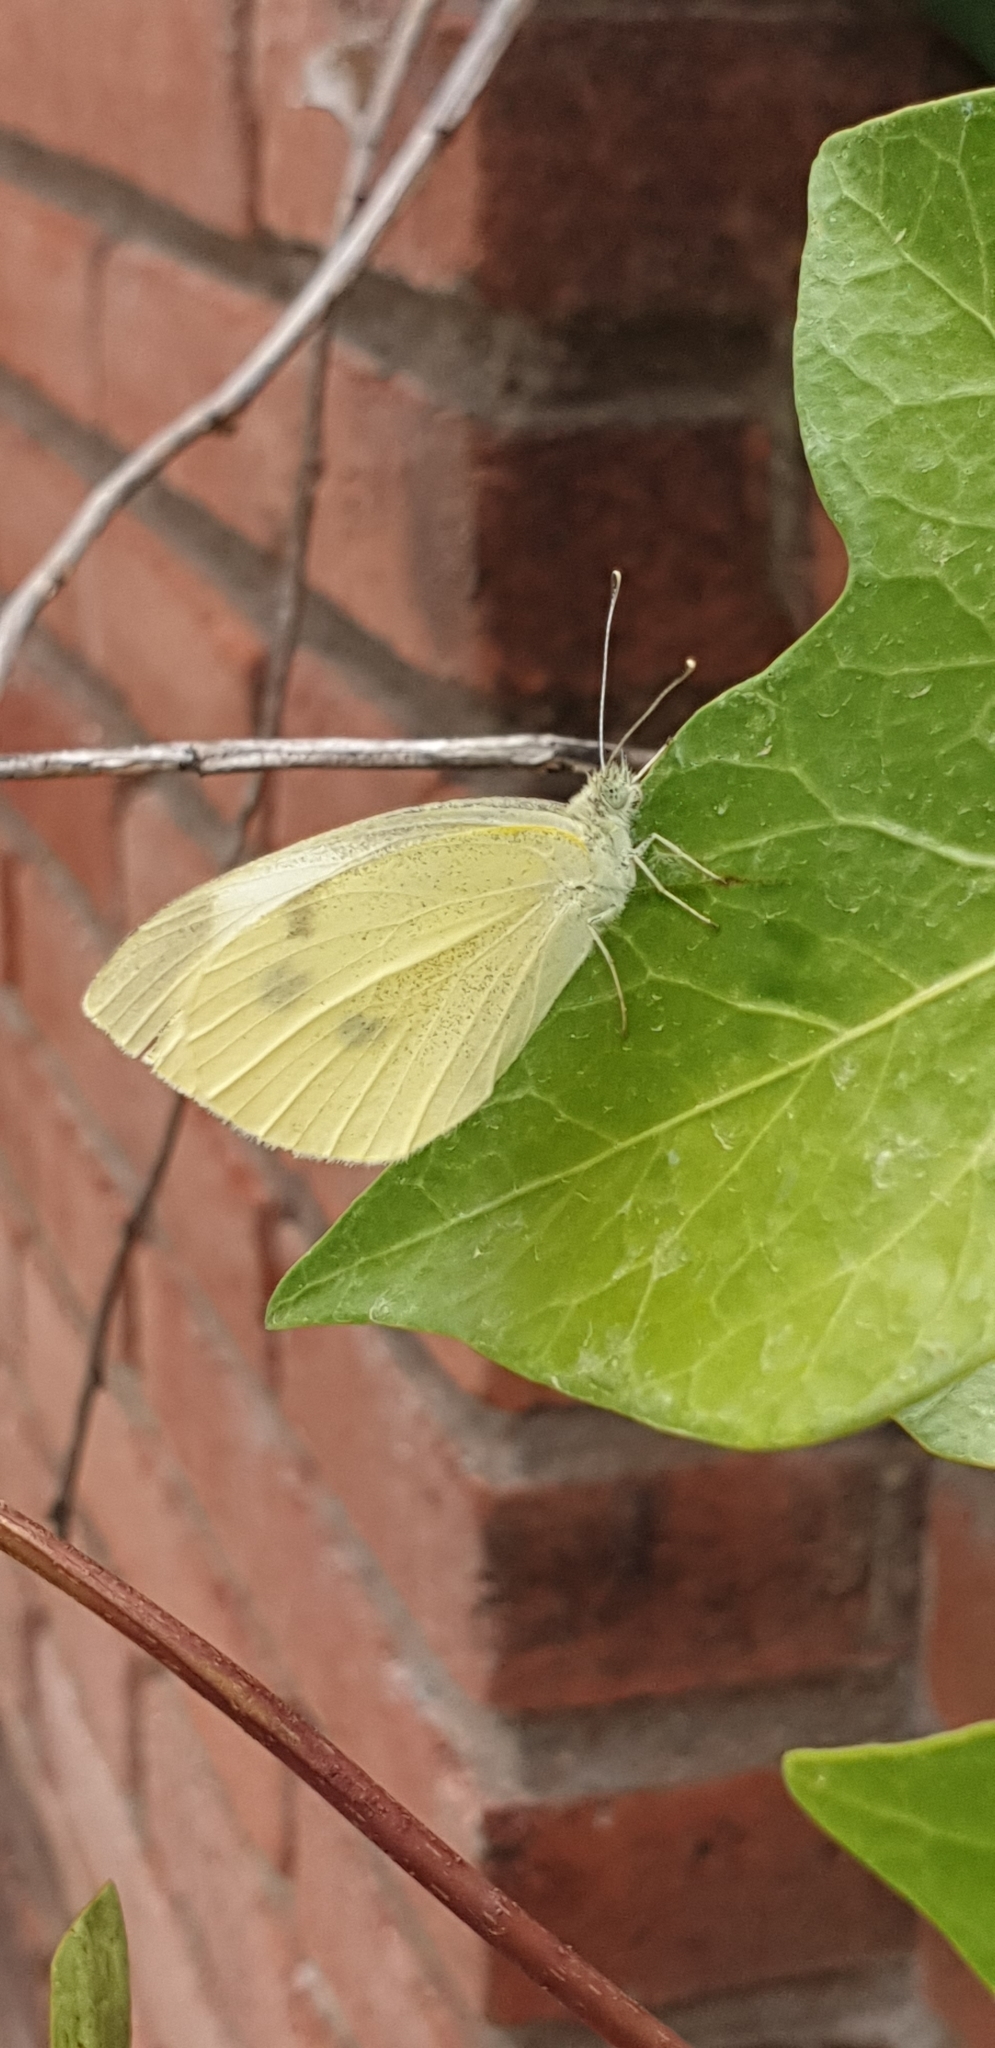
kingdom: Animalia
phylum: Arthropoda
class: Insecta
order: Lepidoptera
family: Pieridae
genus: Pieris
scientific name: Pieris brassicae
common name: Large white
